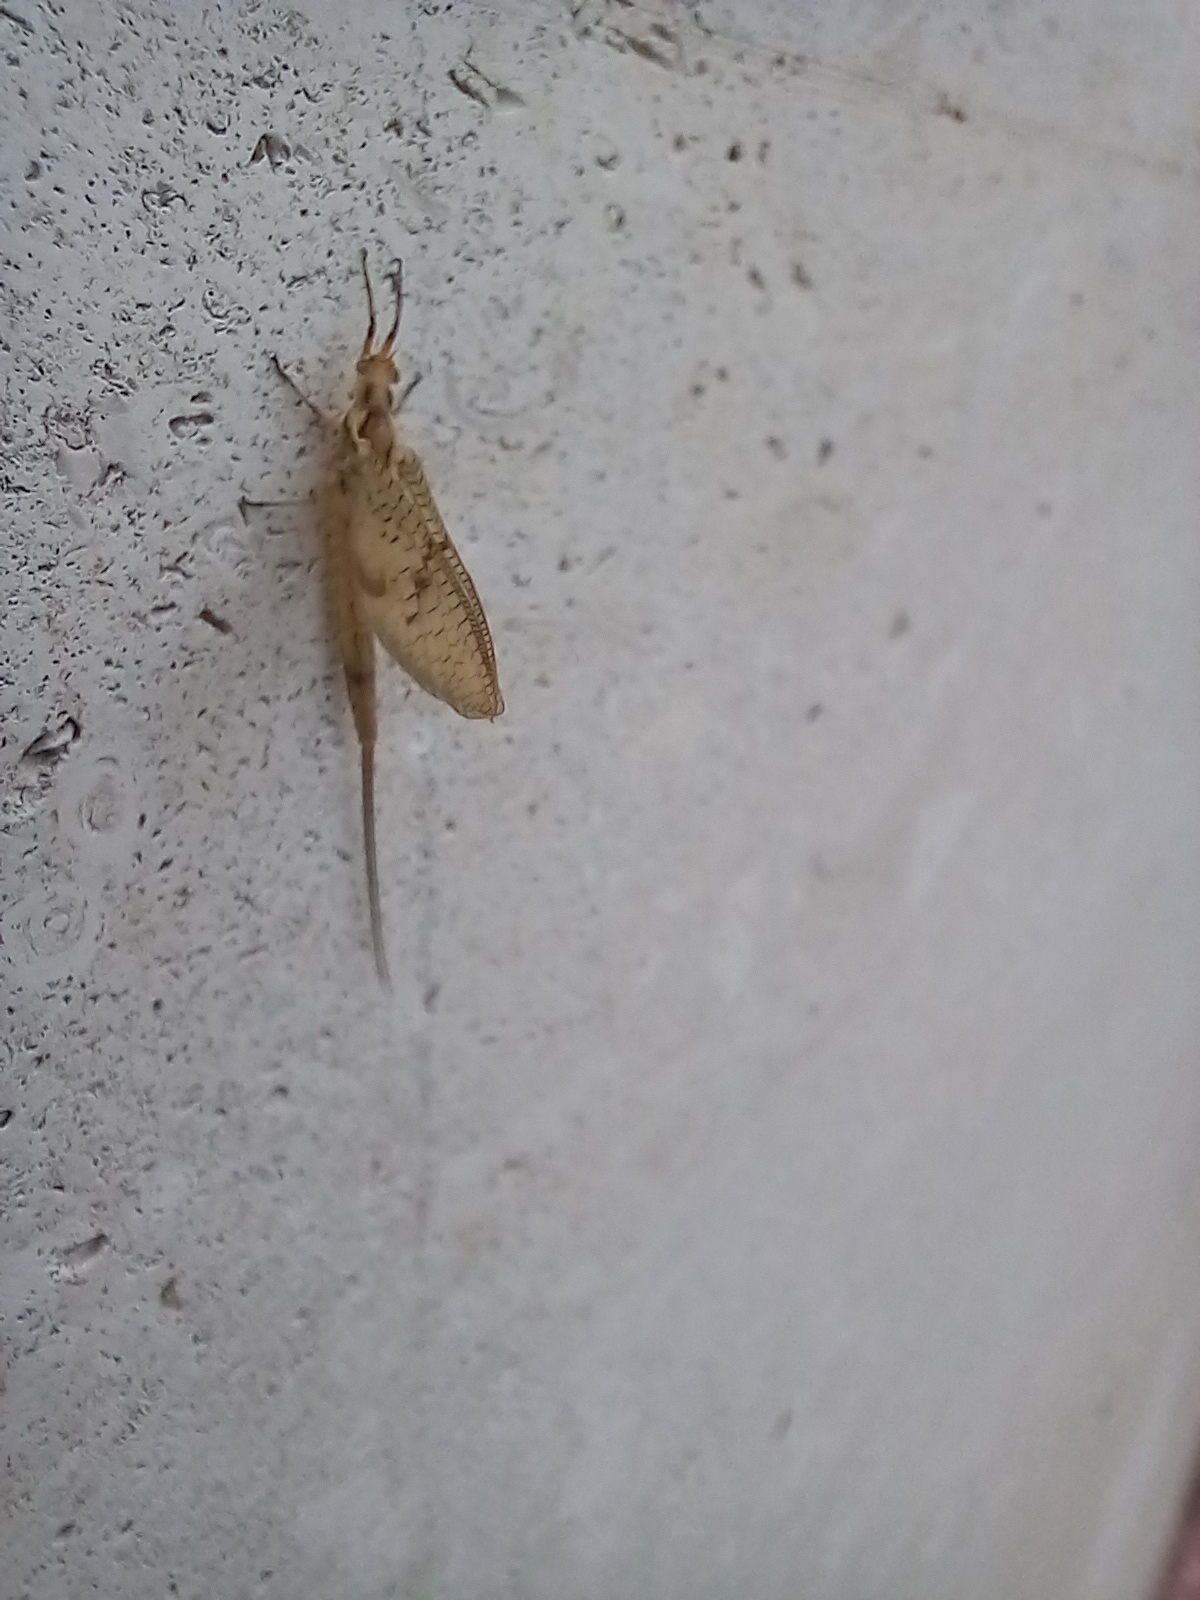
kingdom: Animalia
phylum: Arthropoda
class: Insecta
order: Ephemeroptera
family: Ephemeridae
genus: Ephemera
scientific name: Ephemera glaucops
